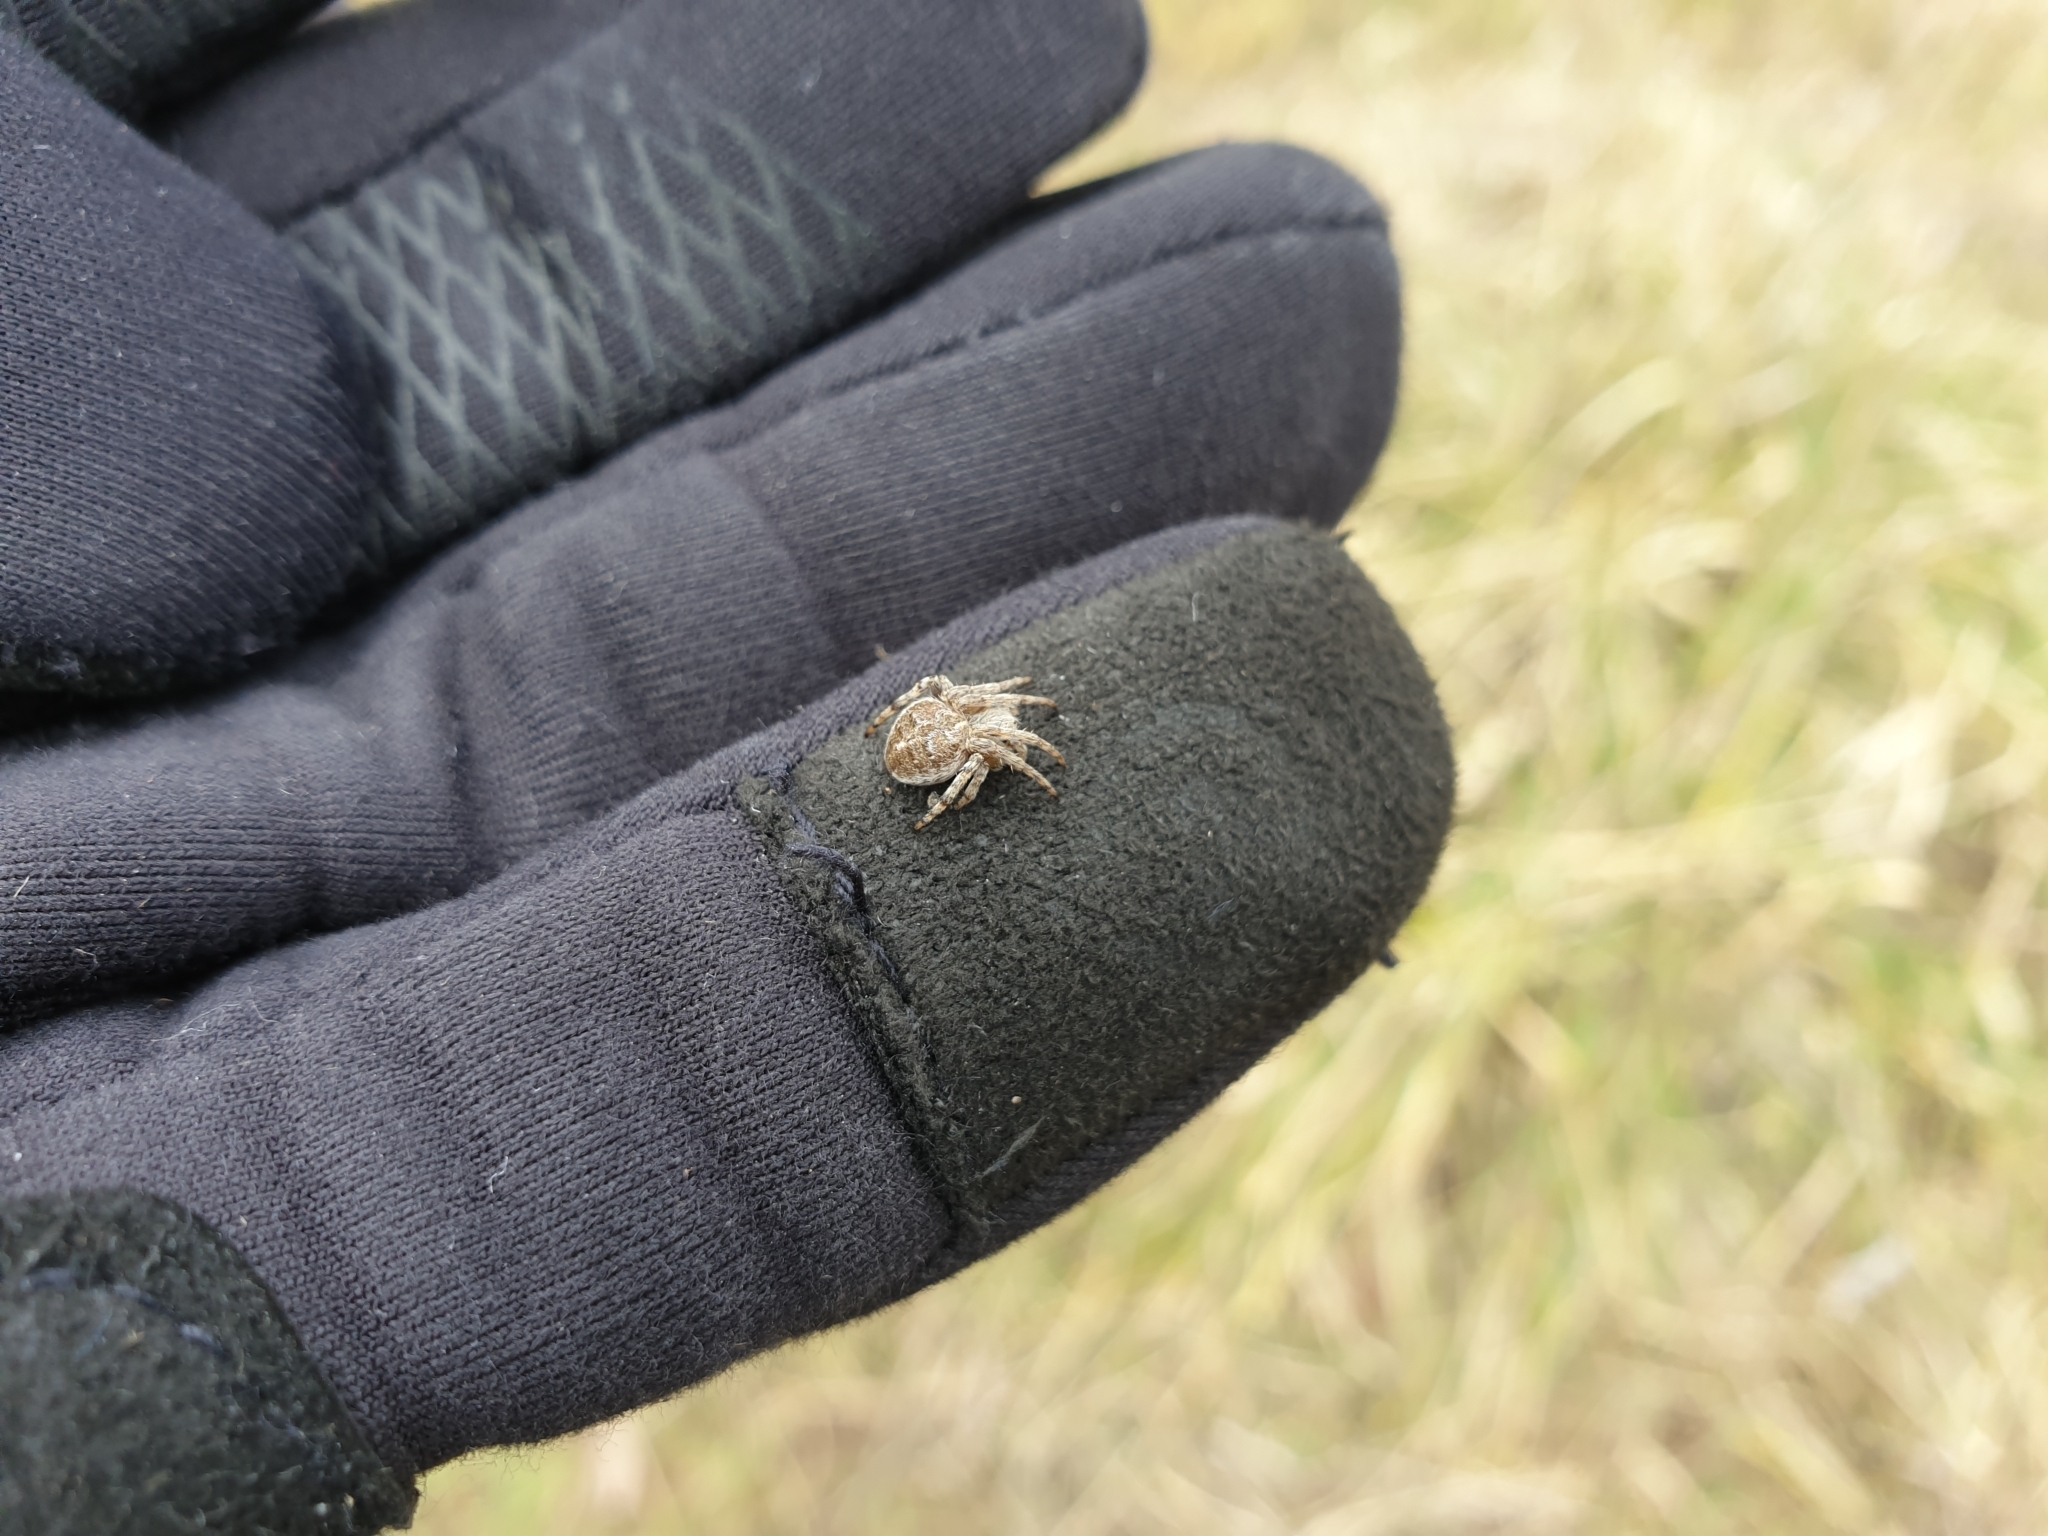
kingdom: Animalia
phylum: Arthropoda
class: Arachnida
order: Araneae
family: Araneidae
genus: Agalenatea
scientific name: Agalenatea redii
